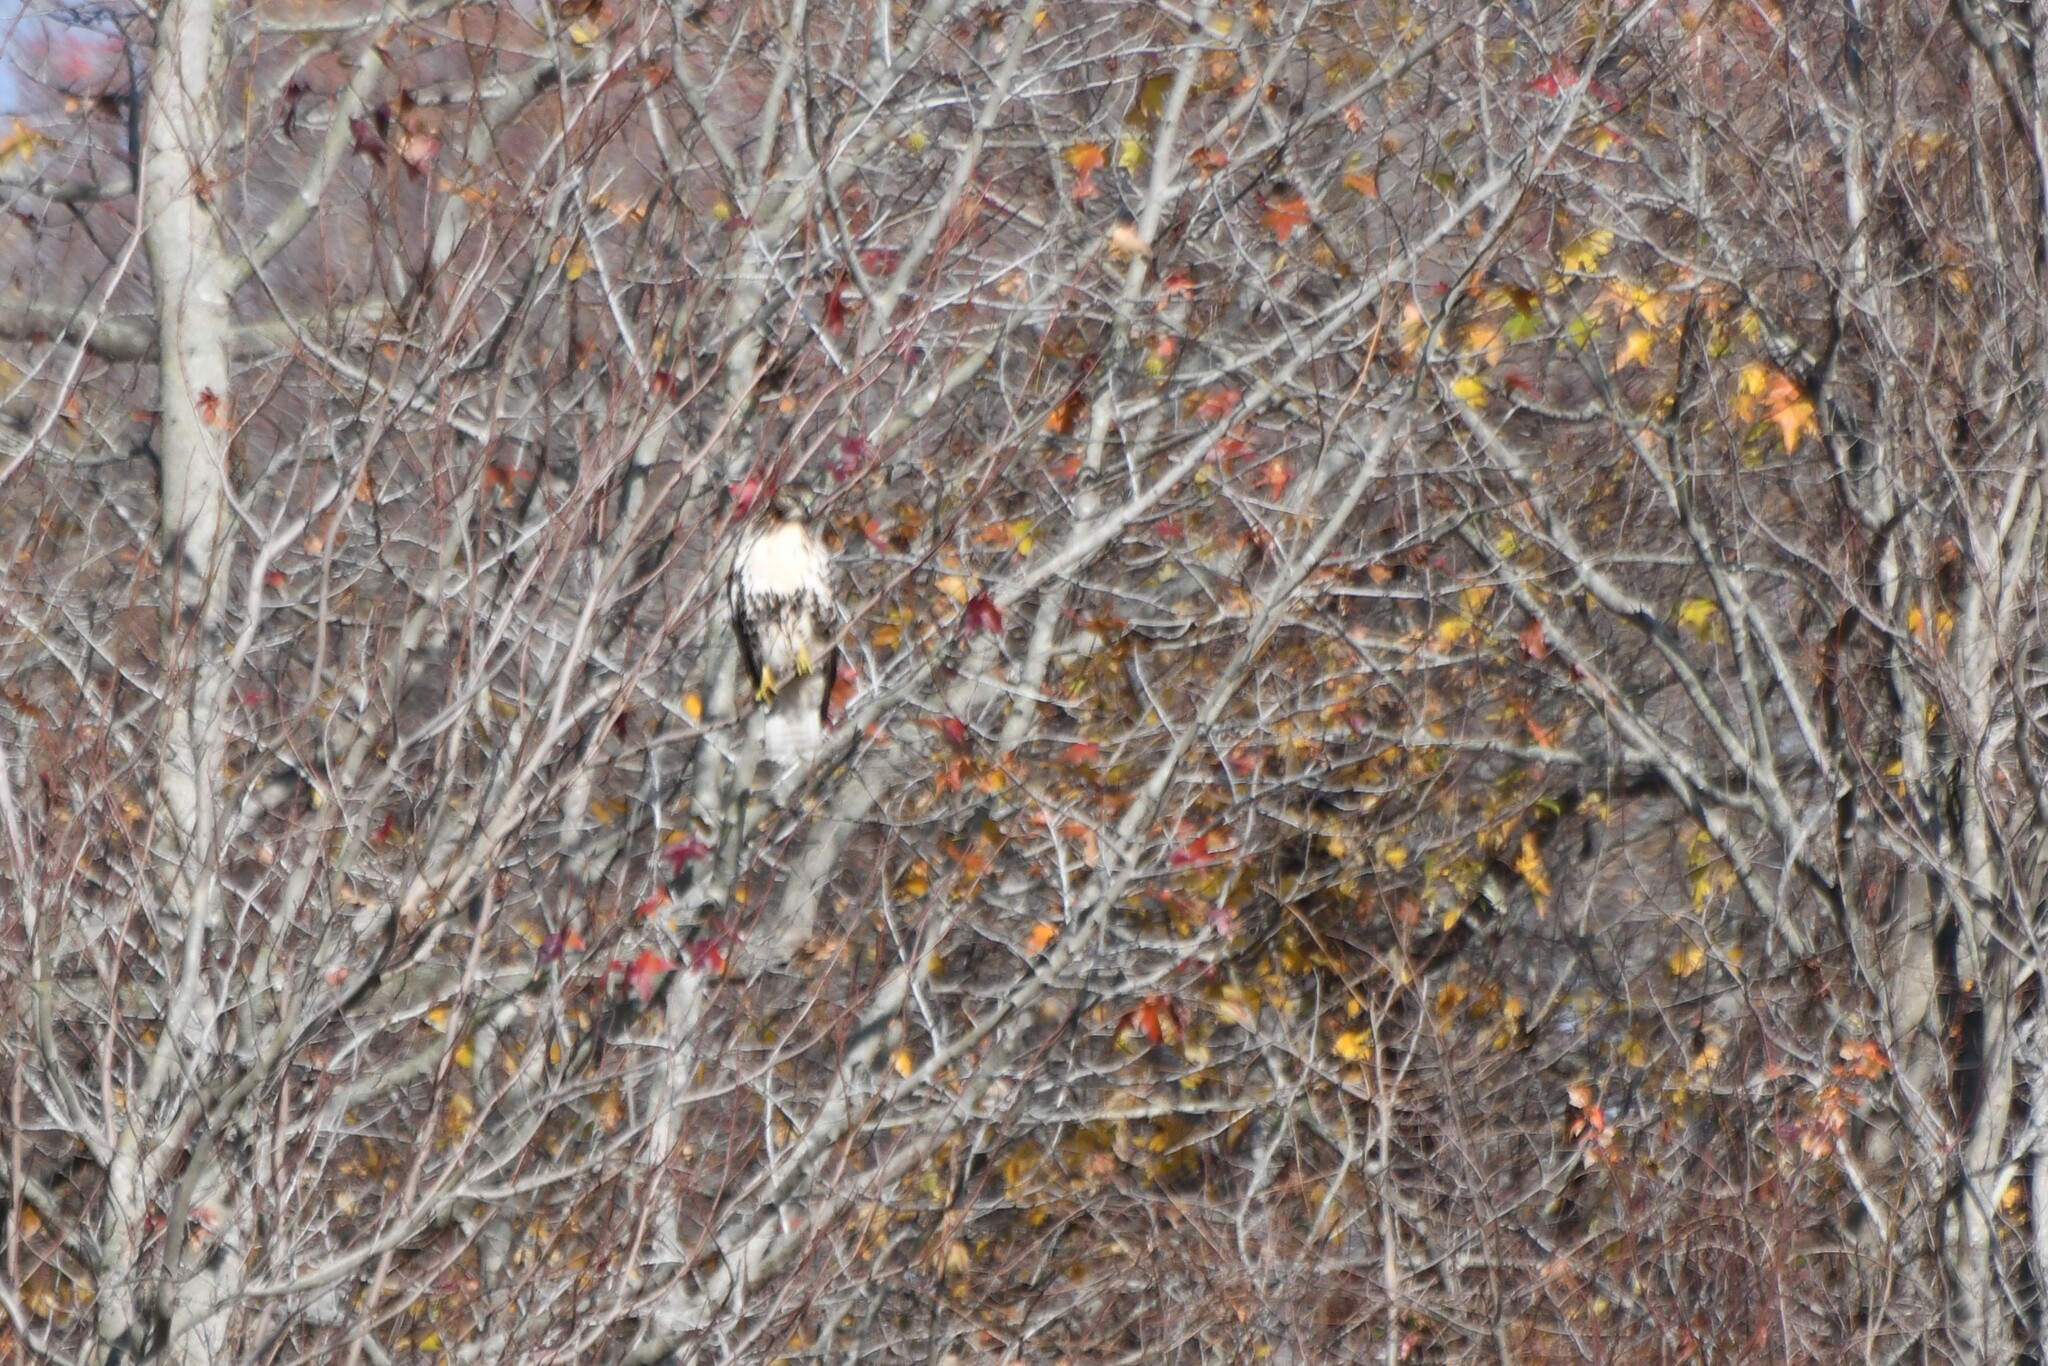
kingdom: Animalia
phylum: Chordata
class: Aves
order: Accipitriformes
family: Accipitridae
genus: Buteo
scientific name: Buteo jamaicensis
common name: Red-tailed hawk
